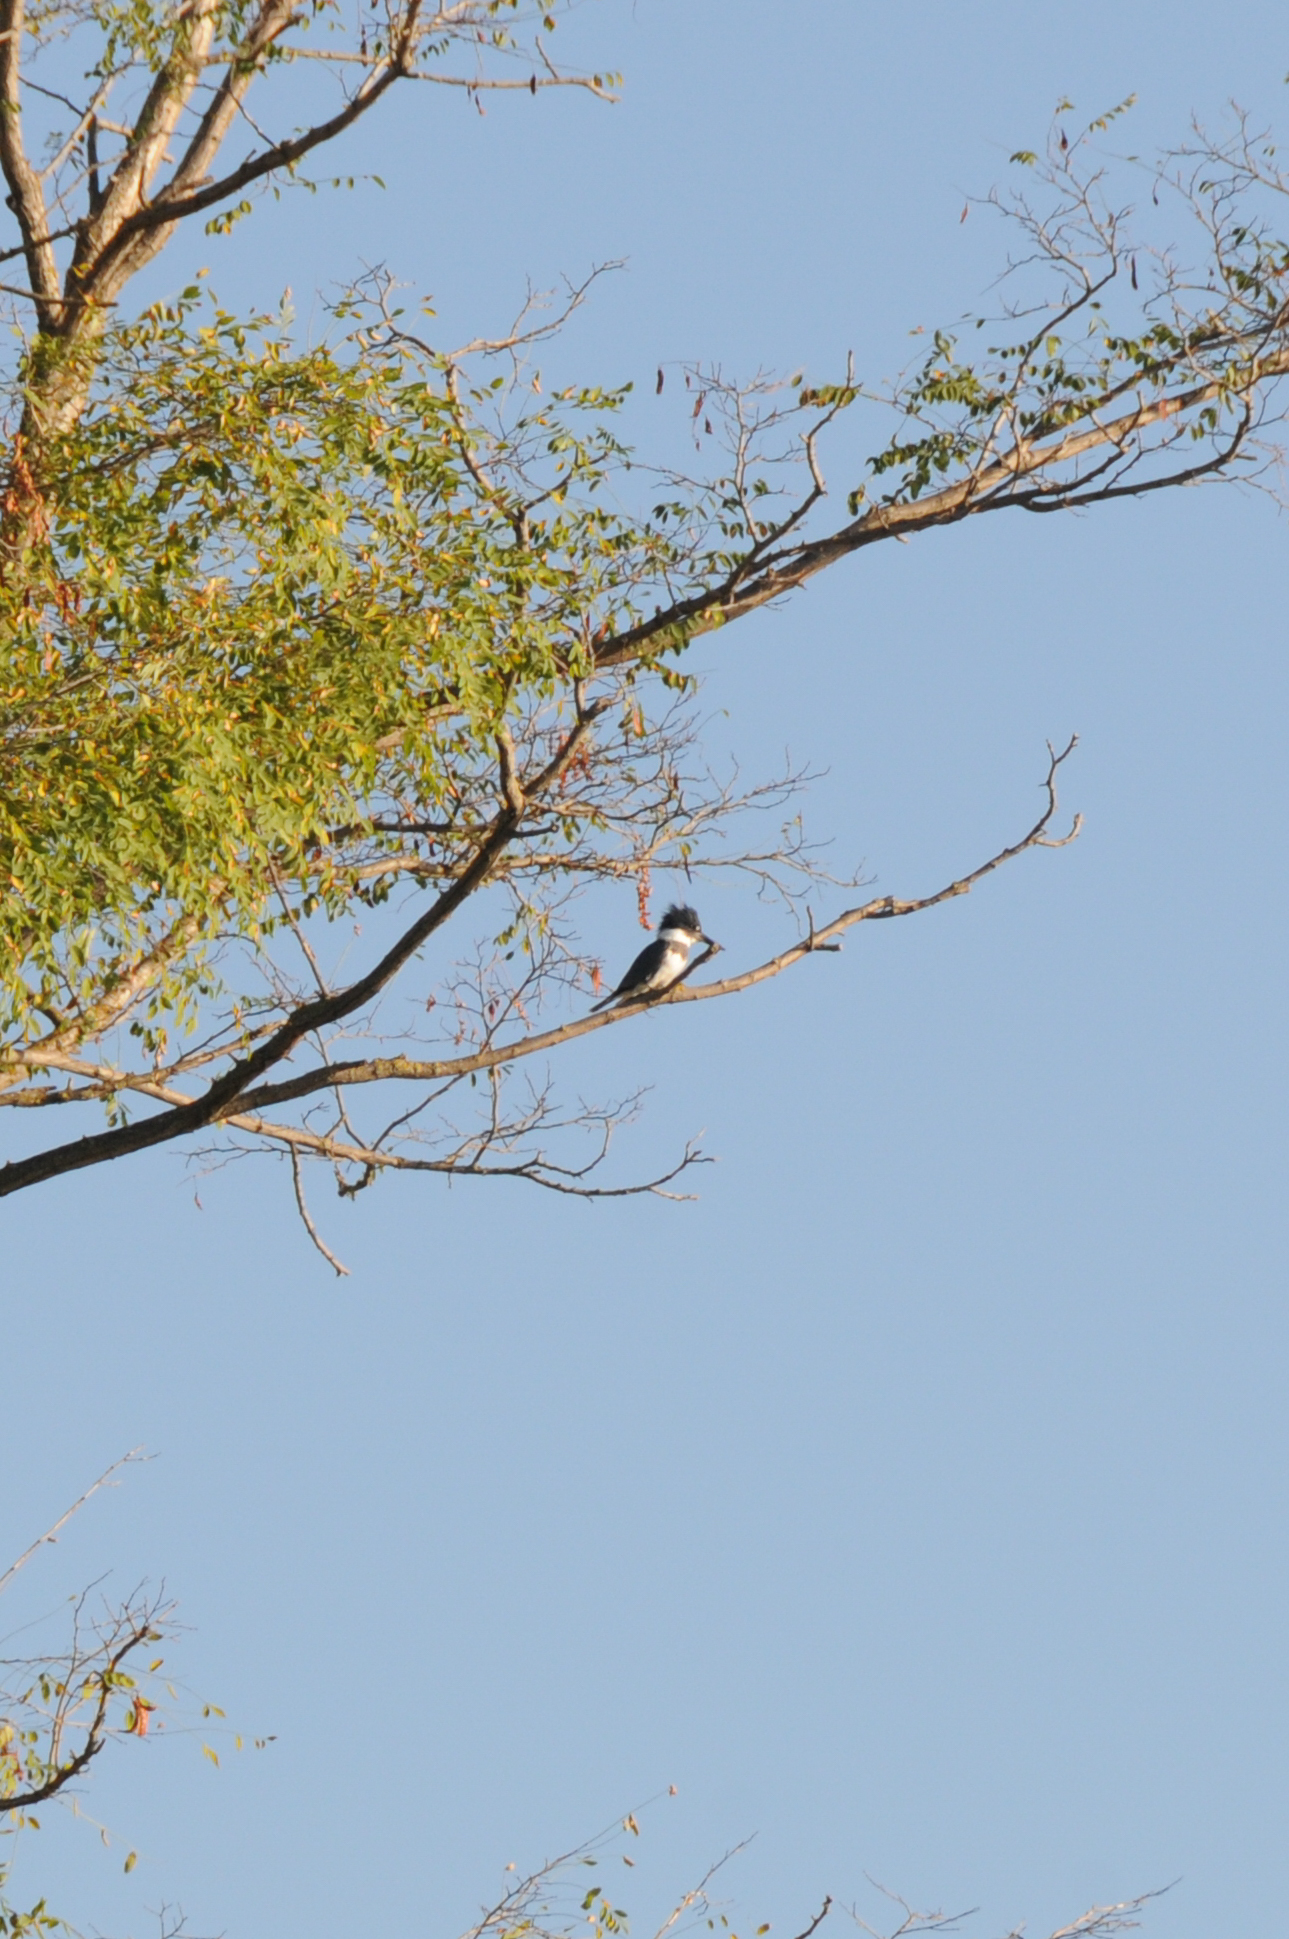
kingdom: Animalia
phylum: Chordata
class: Aves
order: Coraciiformes
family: Alcedinidae
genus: Megaceryle
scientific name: Megaceryle alcyon
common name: Belted kingfisher
